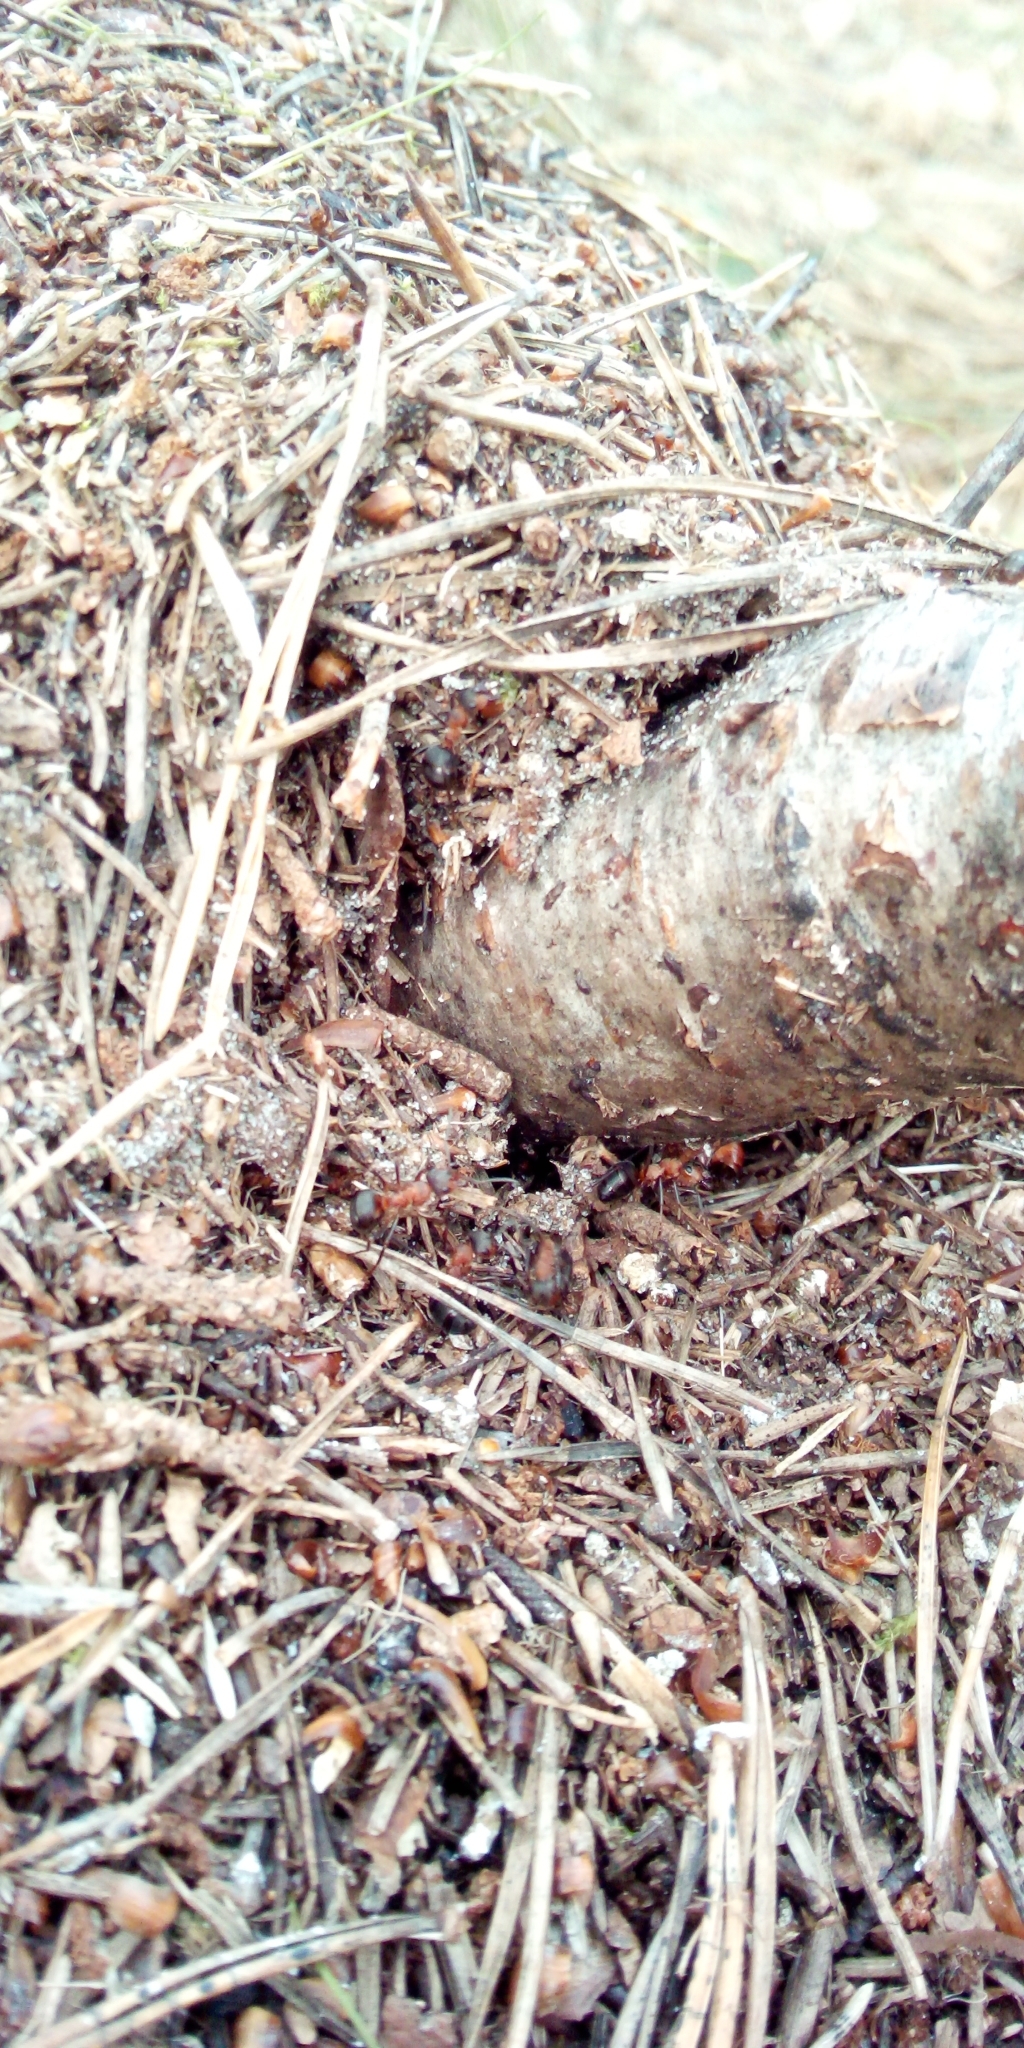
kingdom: Animalia
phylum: Arthropoda
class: Insecta
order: Hymenoptera
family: Formicidae
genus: Formica
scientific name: Formica
